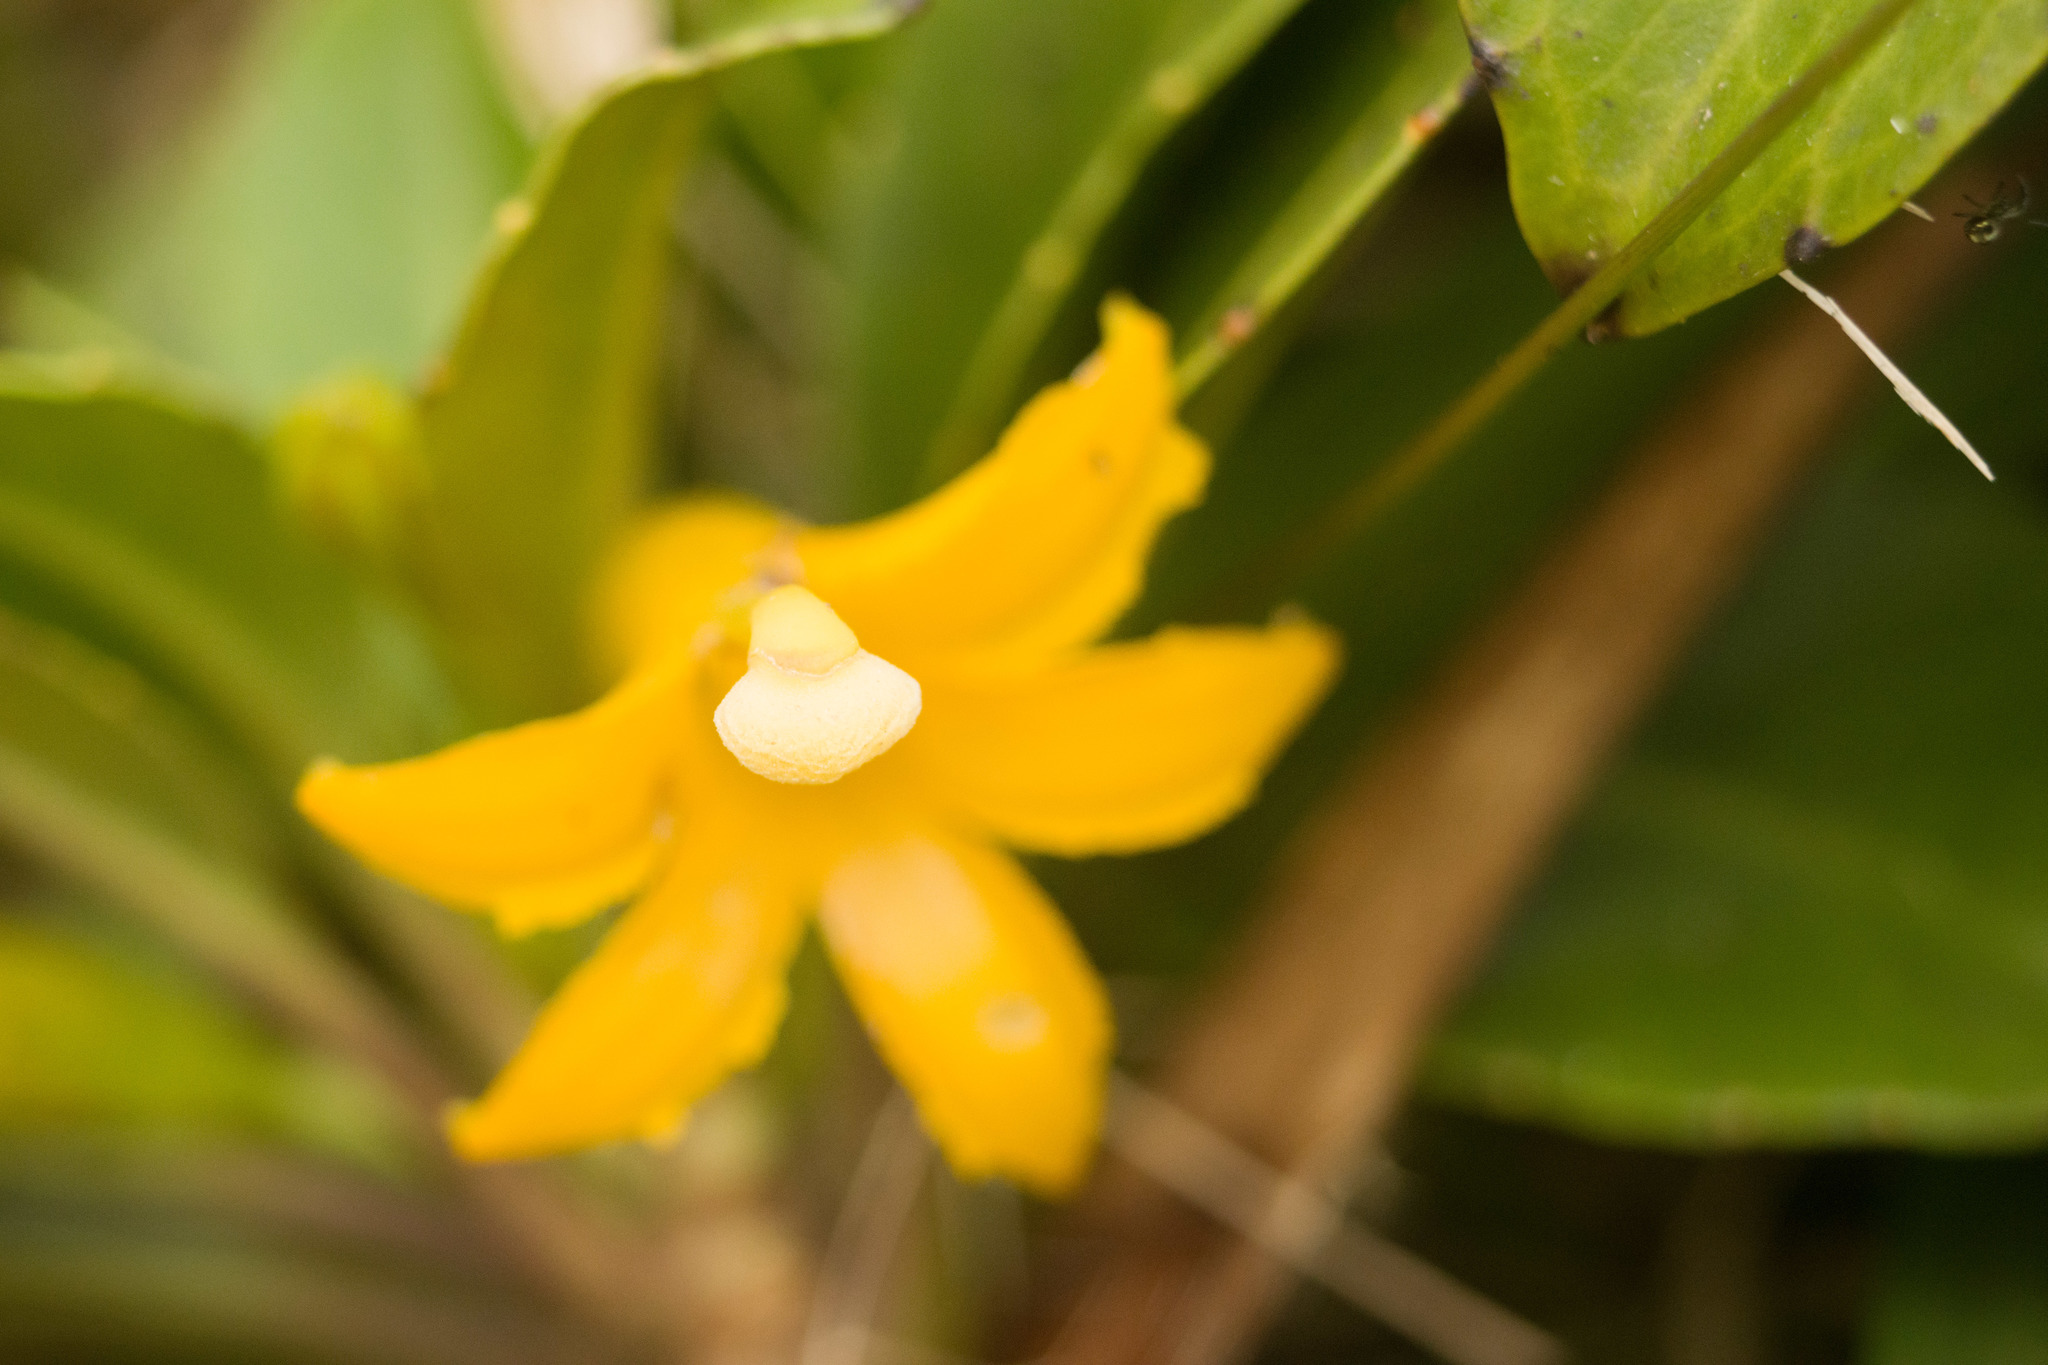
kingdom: Plantae
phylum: Tracheophyta
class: Magnoliopsida
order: Asterales
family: Goodeniaceae
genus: Scaevola
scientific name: Scaevola glabra
